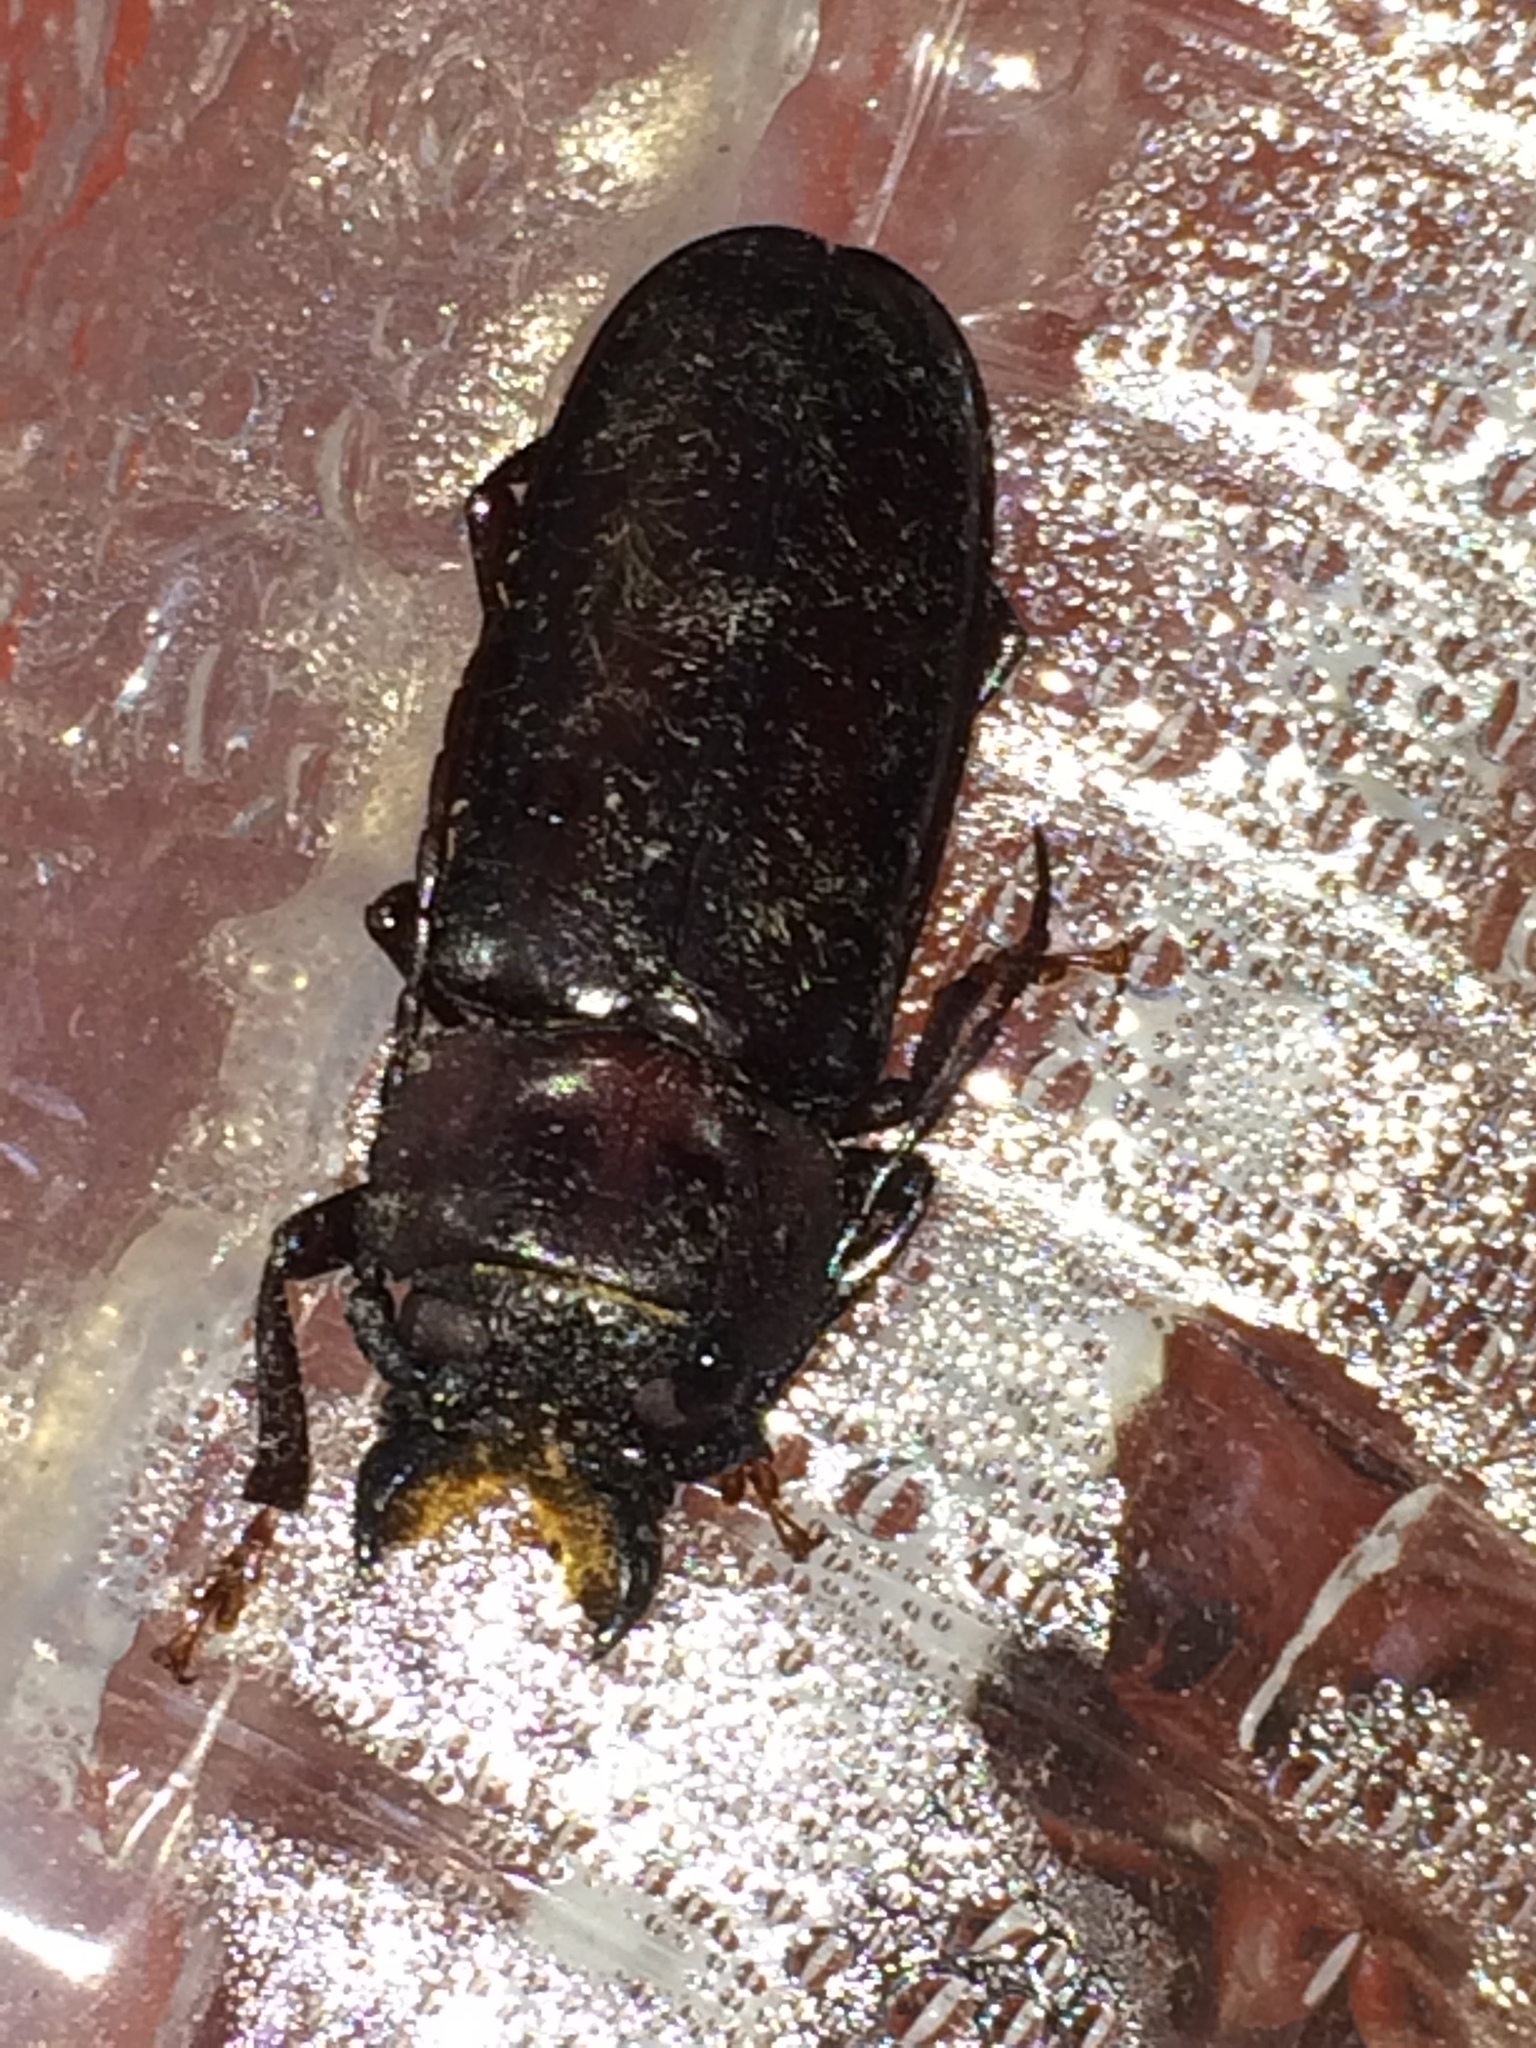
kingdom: Animalia
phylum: Arthropoda
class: Insecta
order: Coleoptera
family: Cerambycidae
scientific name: Cerambycidae
